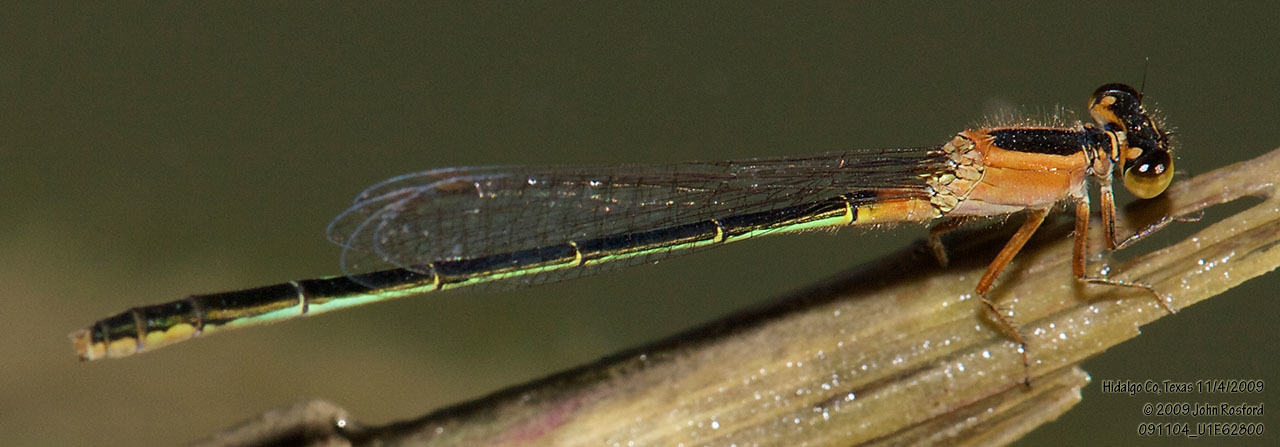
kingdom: Animalia
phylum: Arthropoda
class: Insecta
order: Odonata
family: Coenagrionidae
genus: Ischnura
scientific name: Ischnura ramburii
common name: Rambur's forktail
